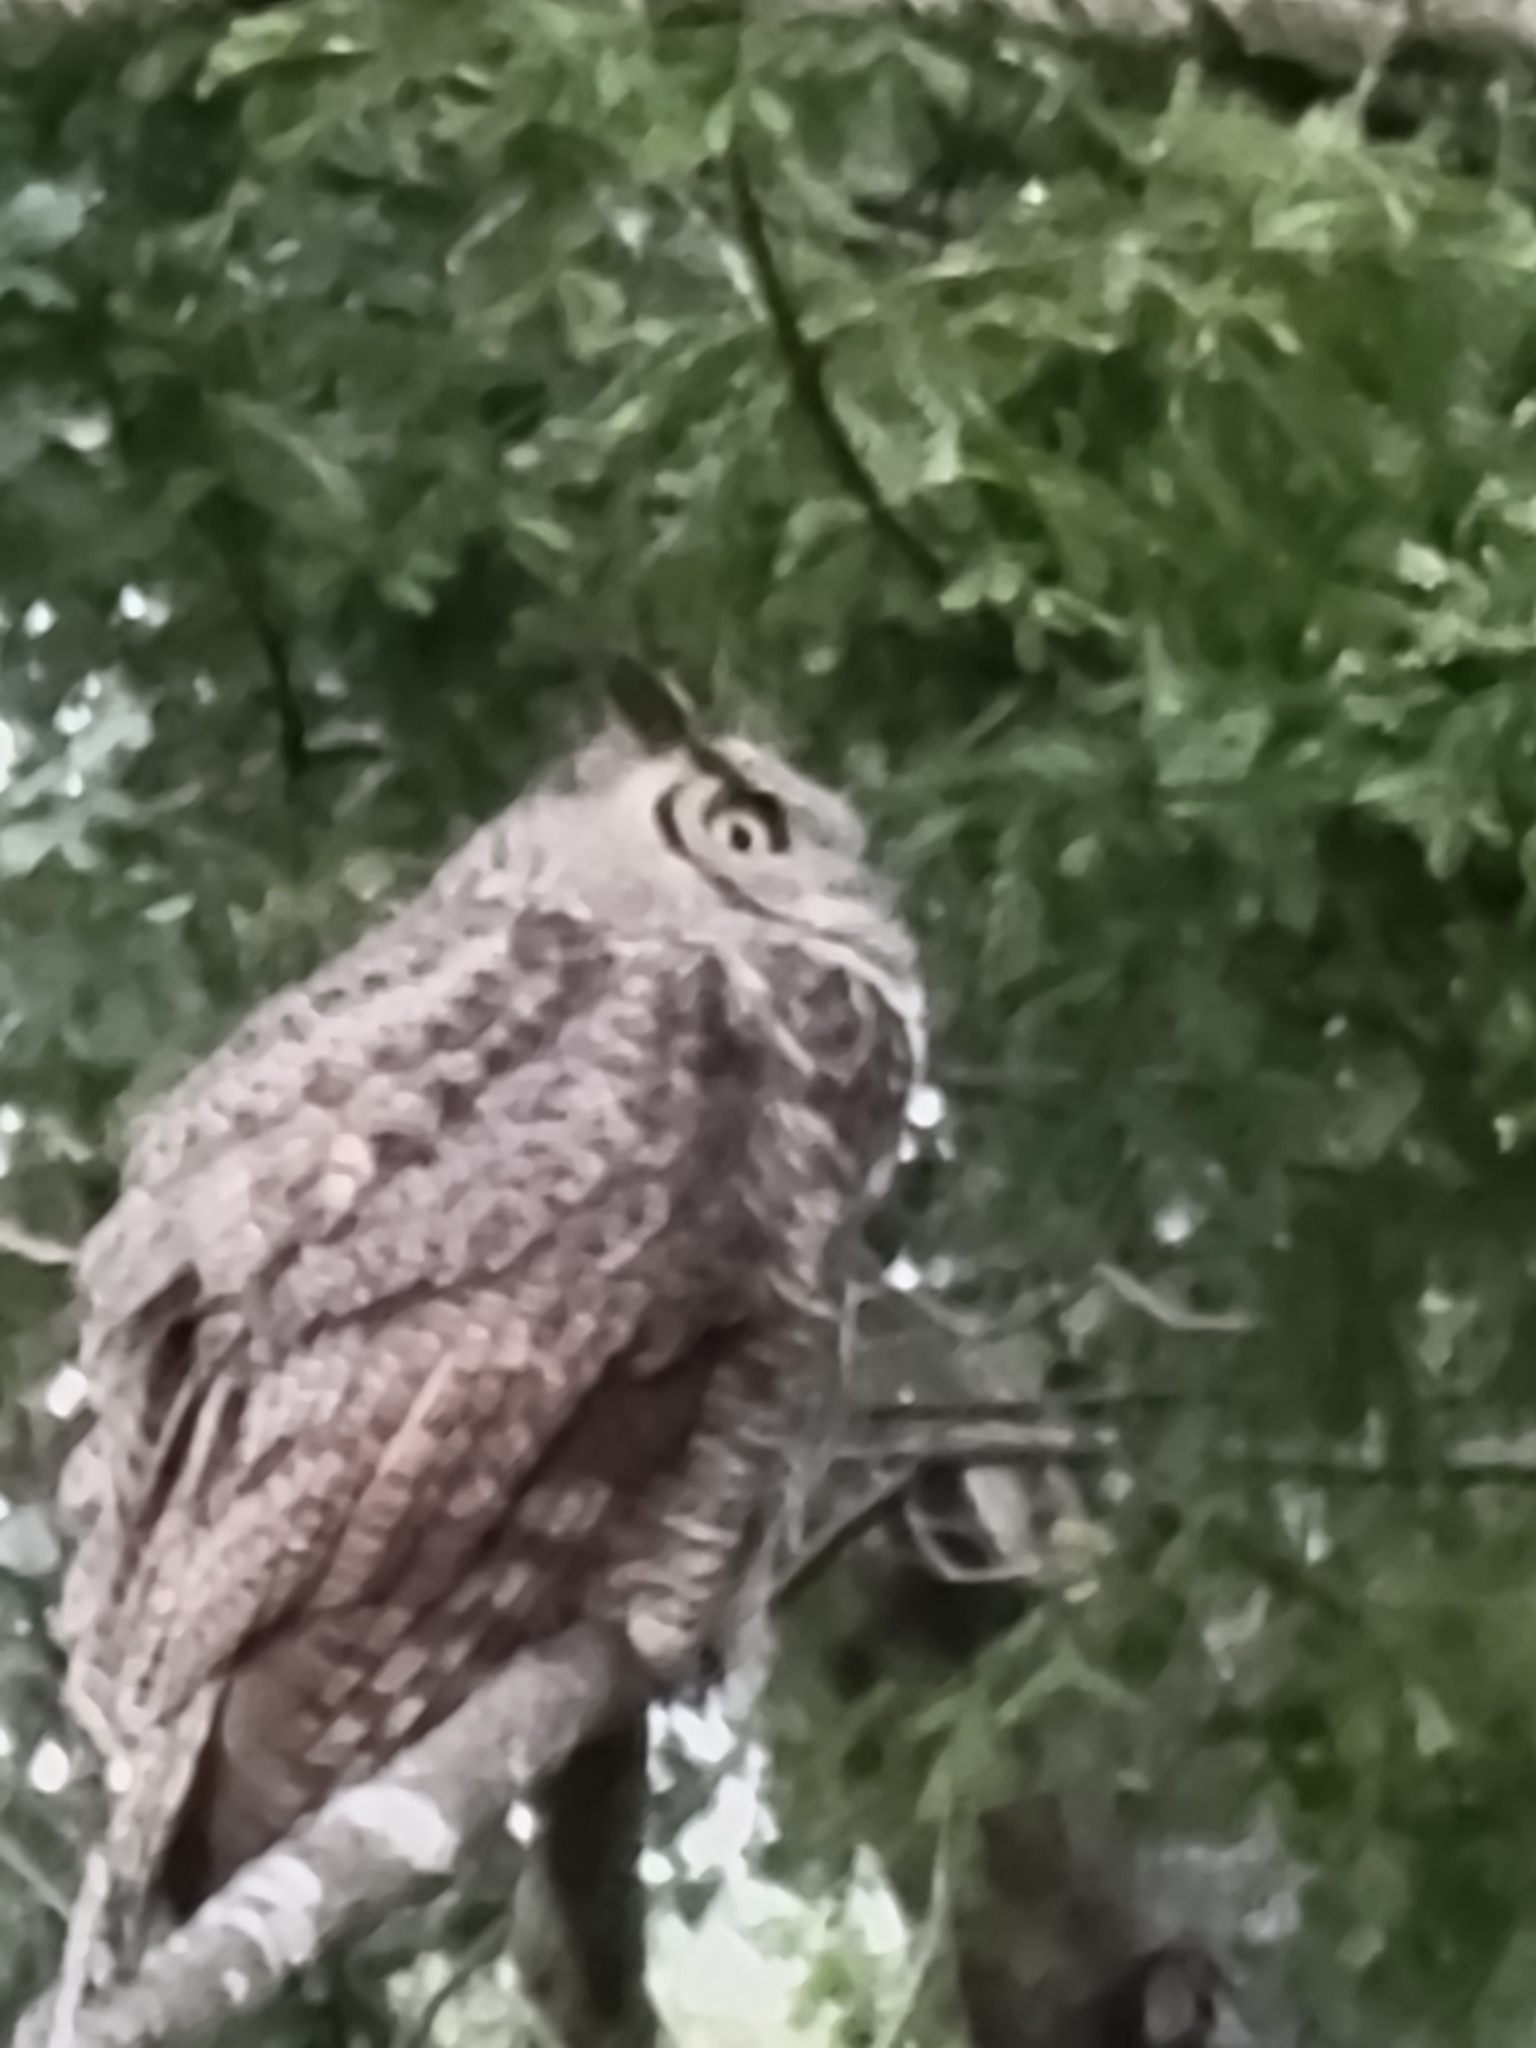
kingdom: Animalia
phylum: Chordata
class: Aves
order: Strigiformes
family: Strigidae
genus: Bubo
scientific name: Bubo virginianus
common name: Great horned owl
